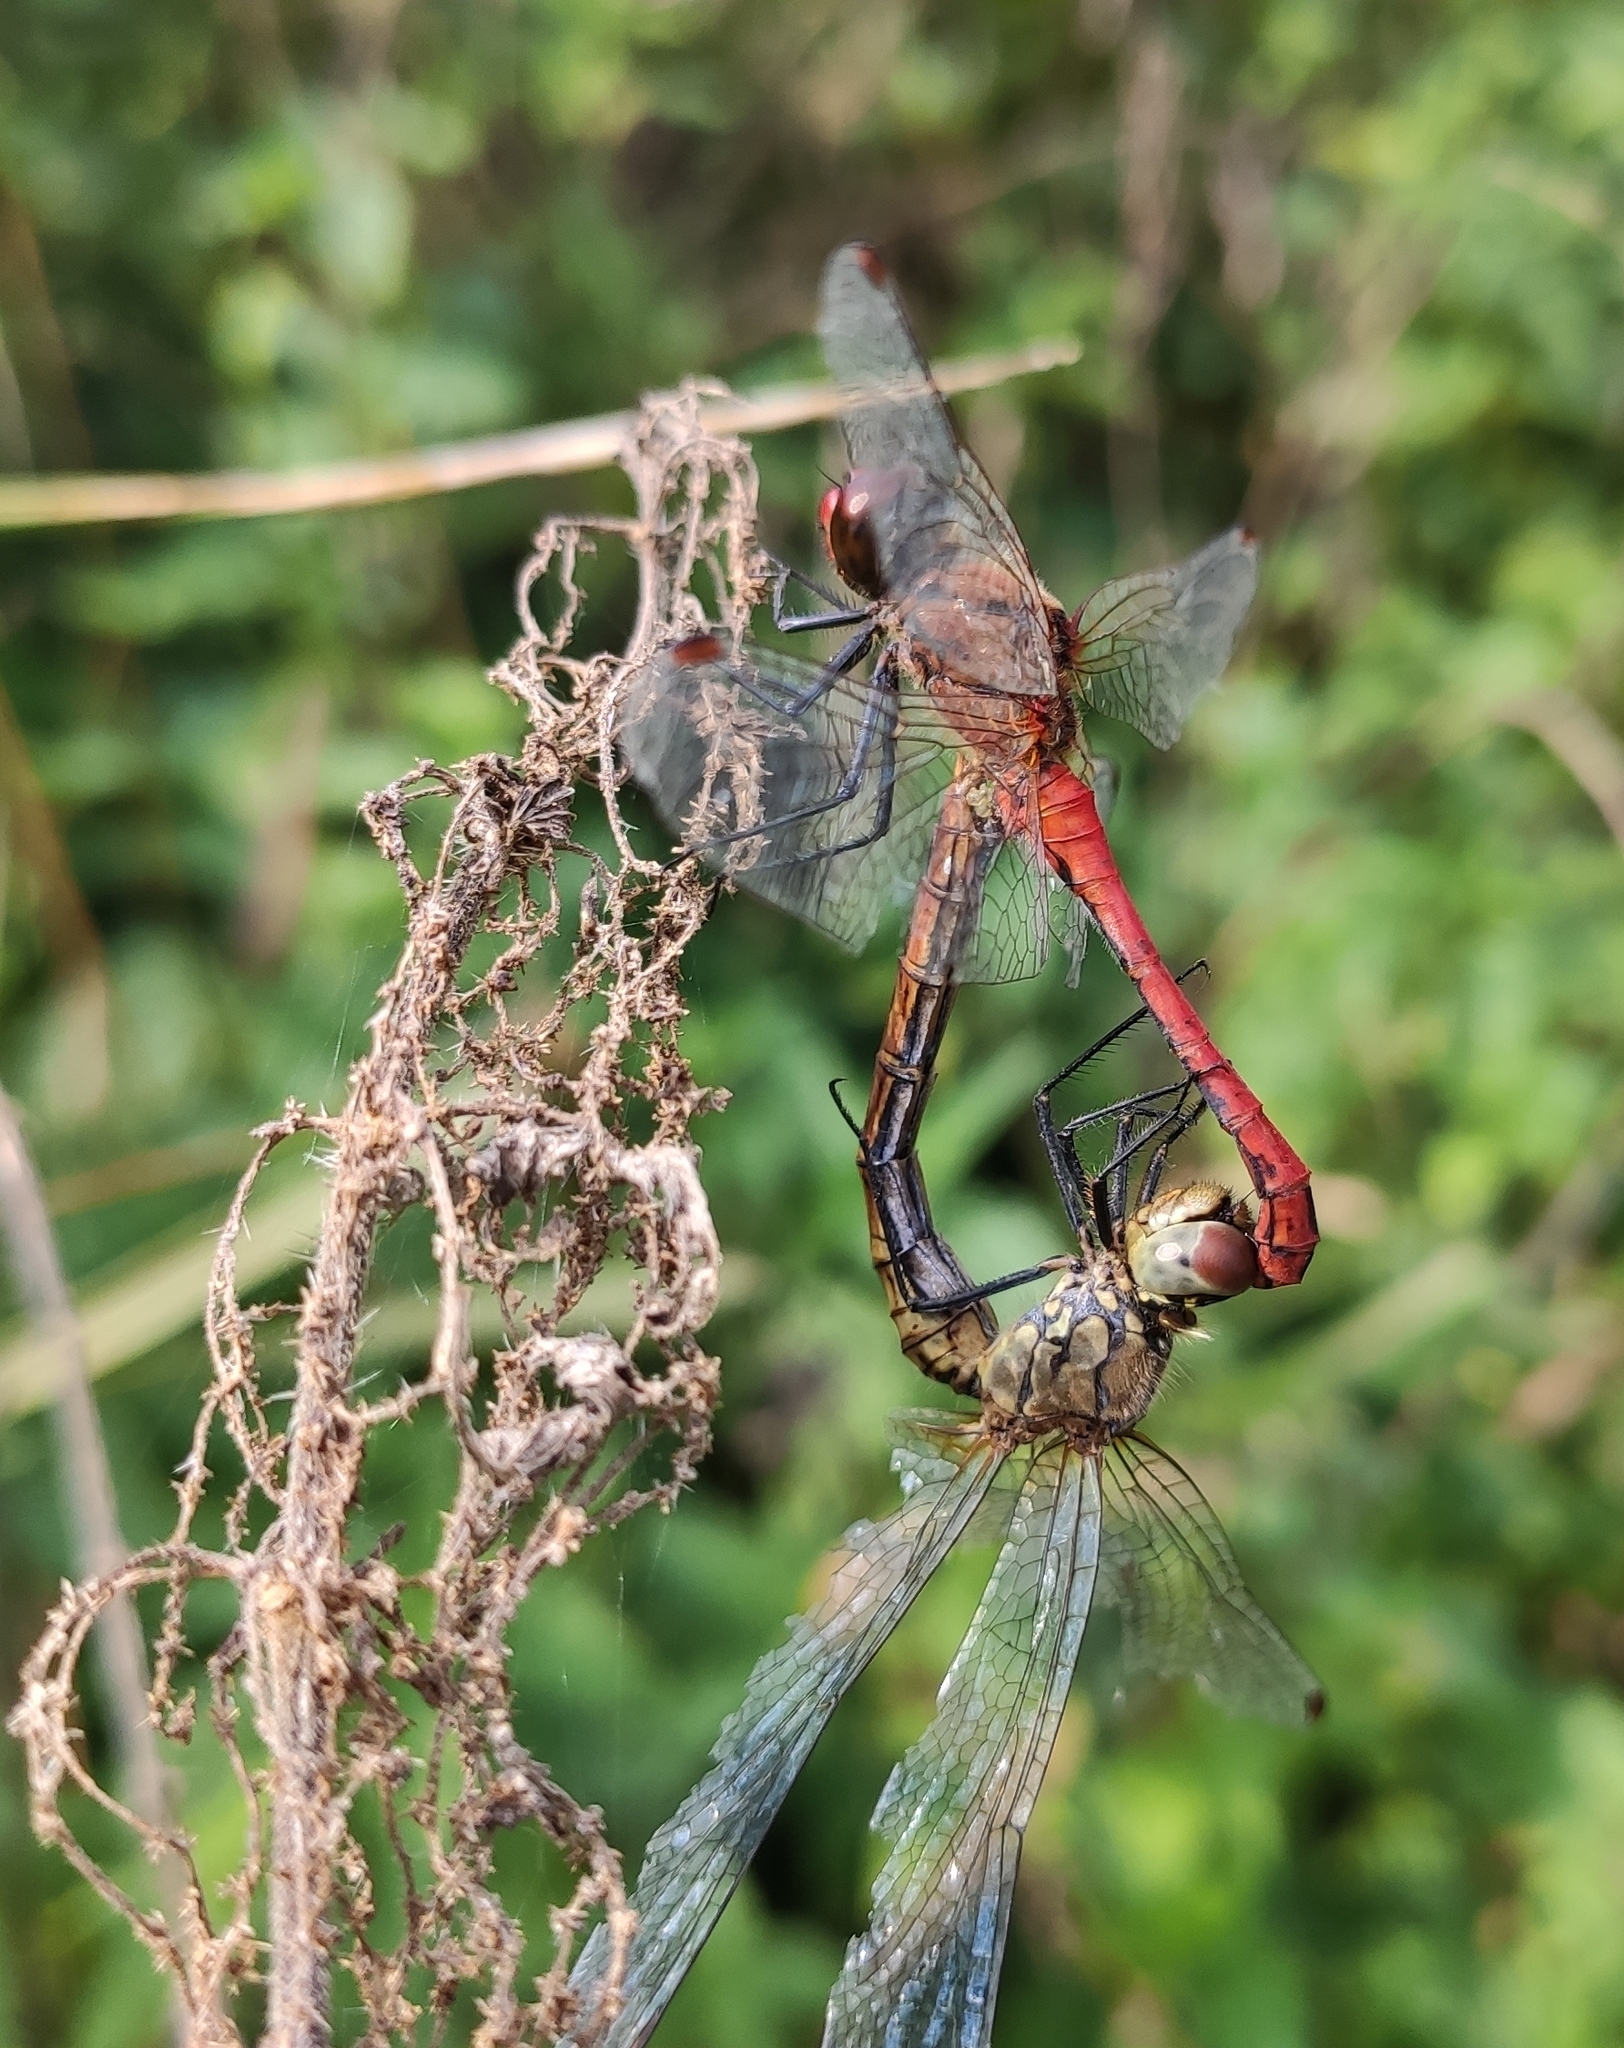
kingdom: Animalia
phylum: Arthropoda
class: Insecta
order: Odonata
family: Libellulidae
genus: Sympetrum
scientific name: Sympetrum sanguineum
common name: Ruddy darter
